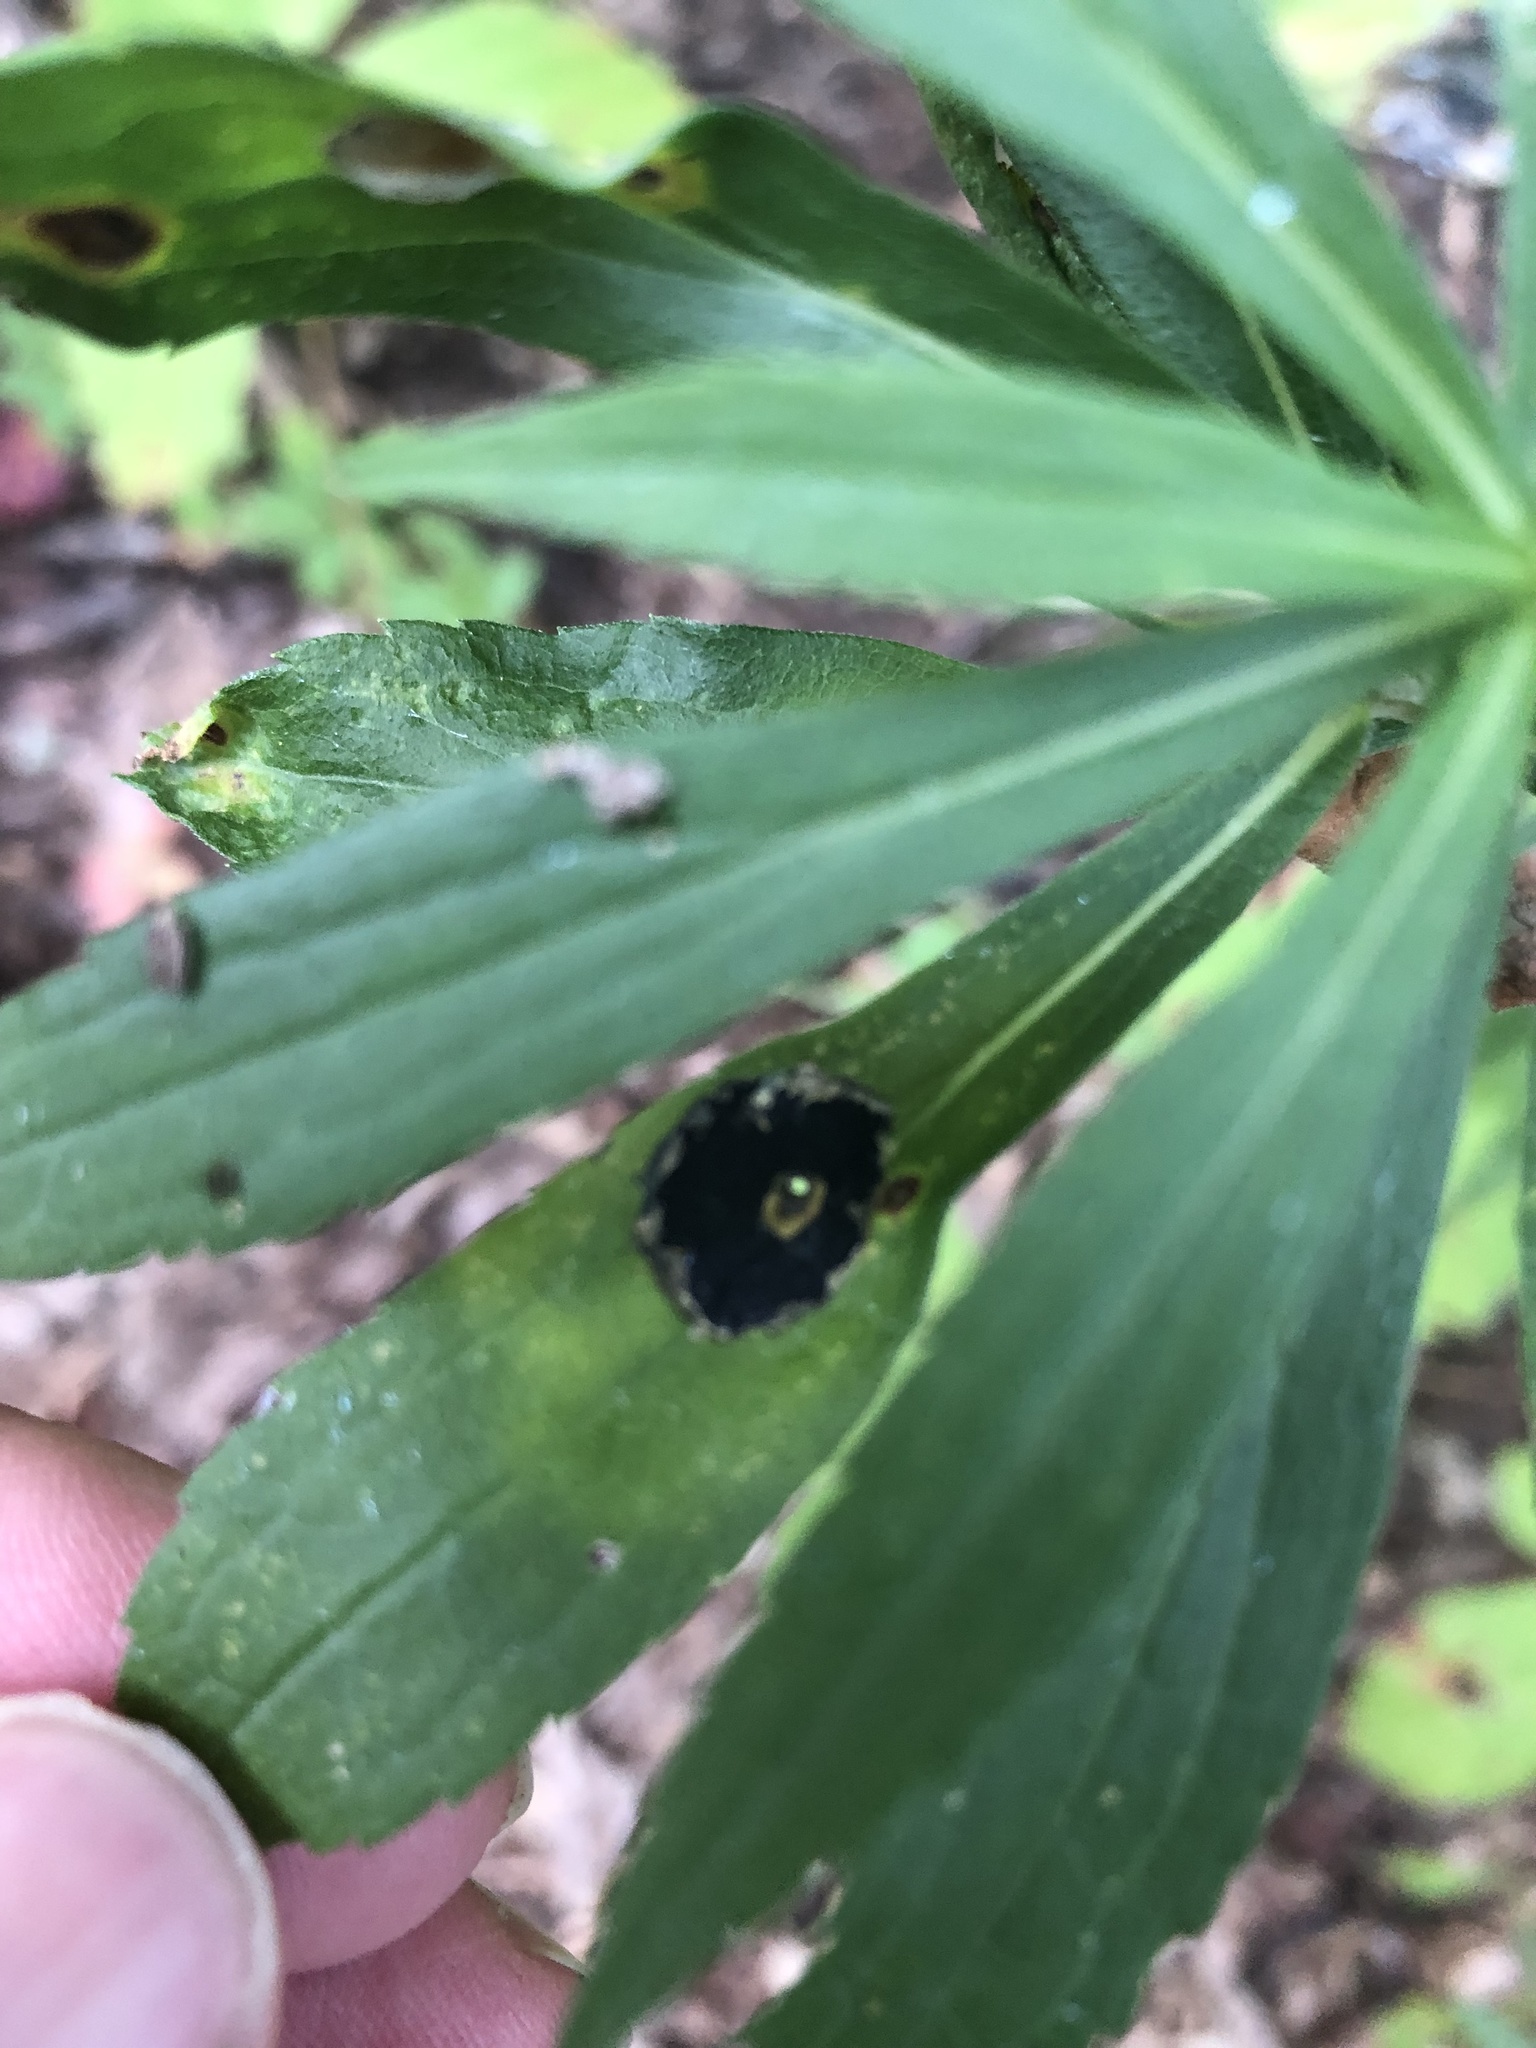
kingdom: Animalia
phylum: Arthropoda
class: Insecta
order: Diptera
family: Cecidomyiidae
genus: Asteromyia
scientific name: Asteromyia carbonifera
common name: Carbonifera goldenrod gall midge
